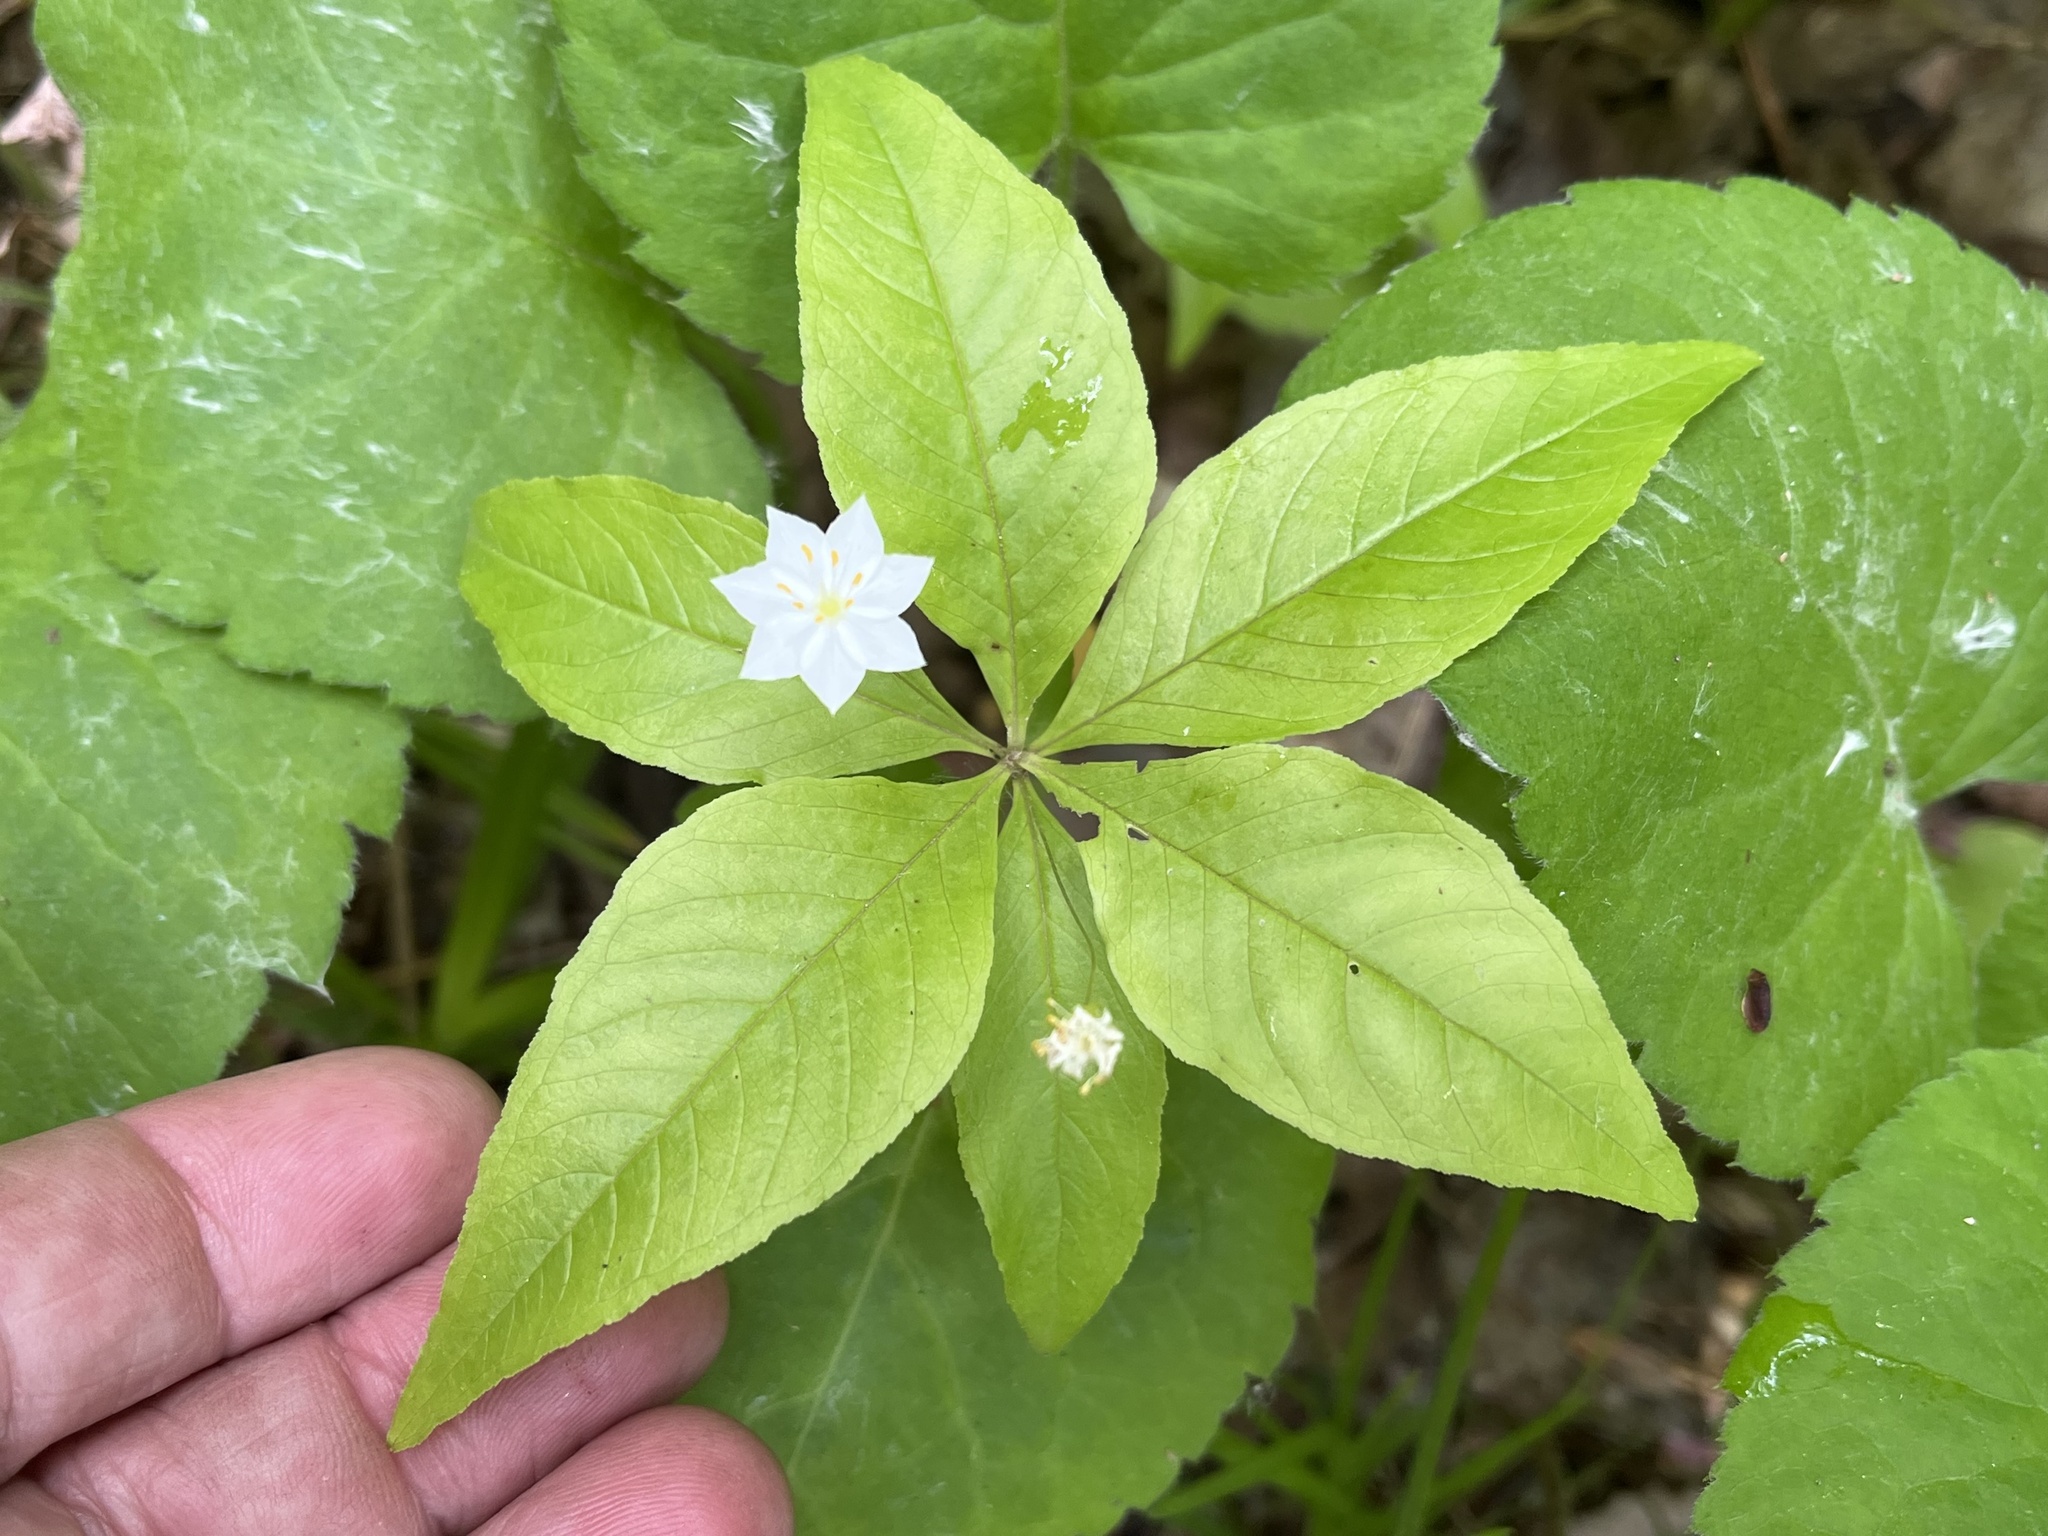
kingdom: Plantae
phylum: Tracheophyta
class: Magnoliopsida
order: Ericales
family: Primulaceae
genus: Lysimachia
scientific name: Lysimachia borealis
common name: American starflower
